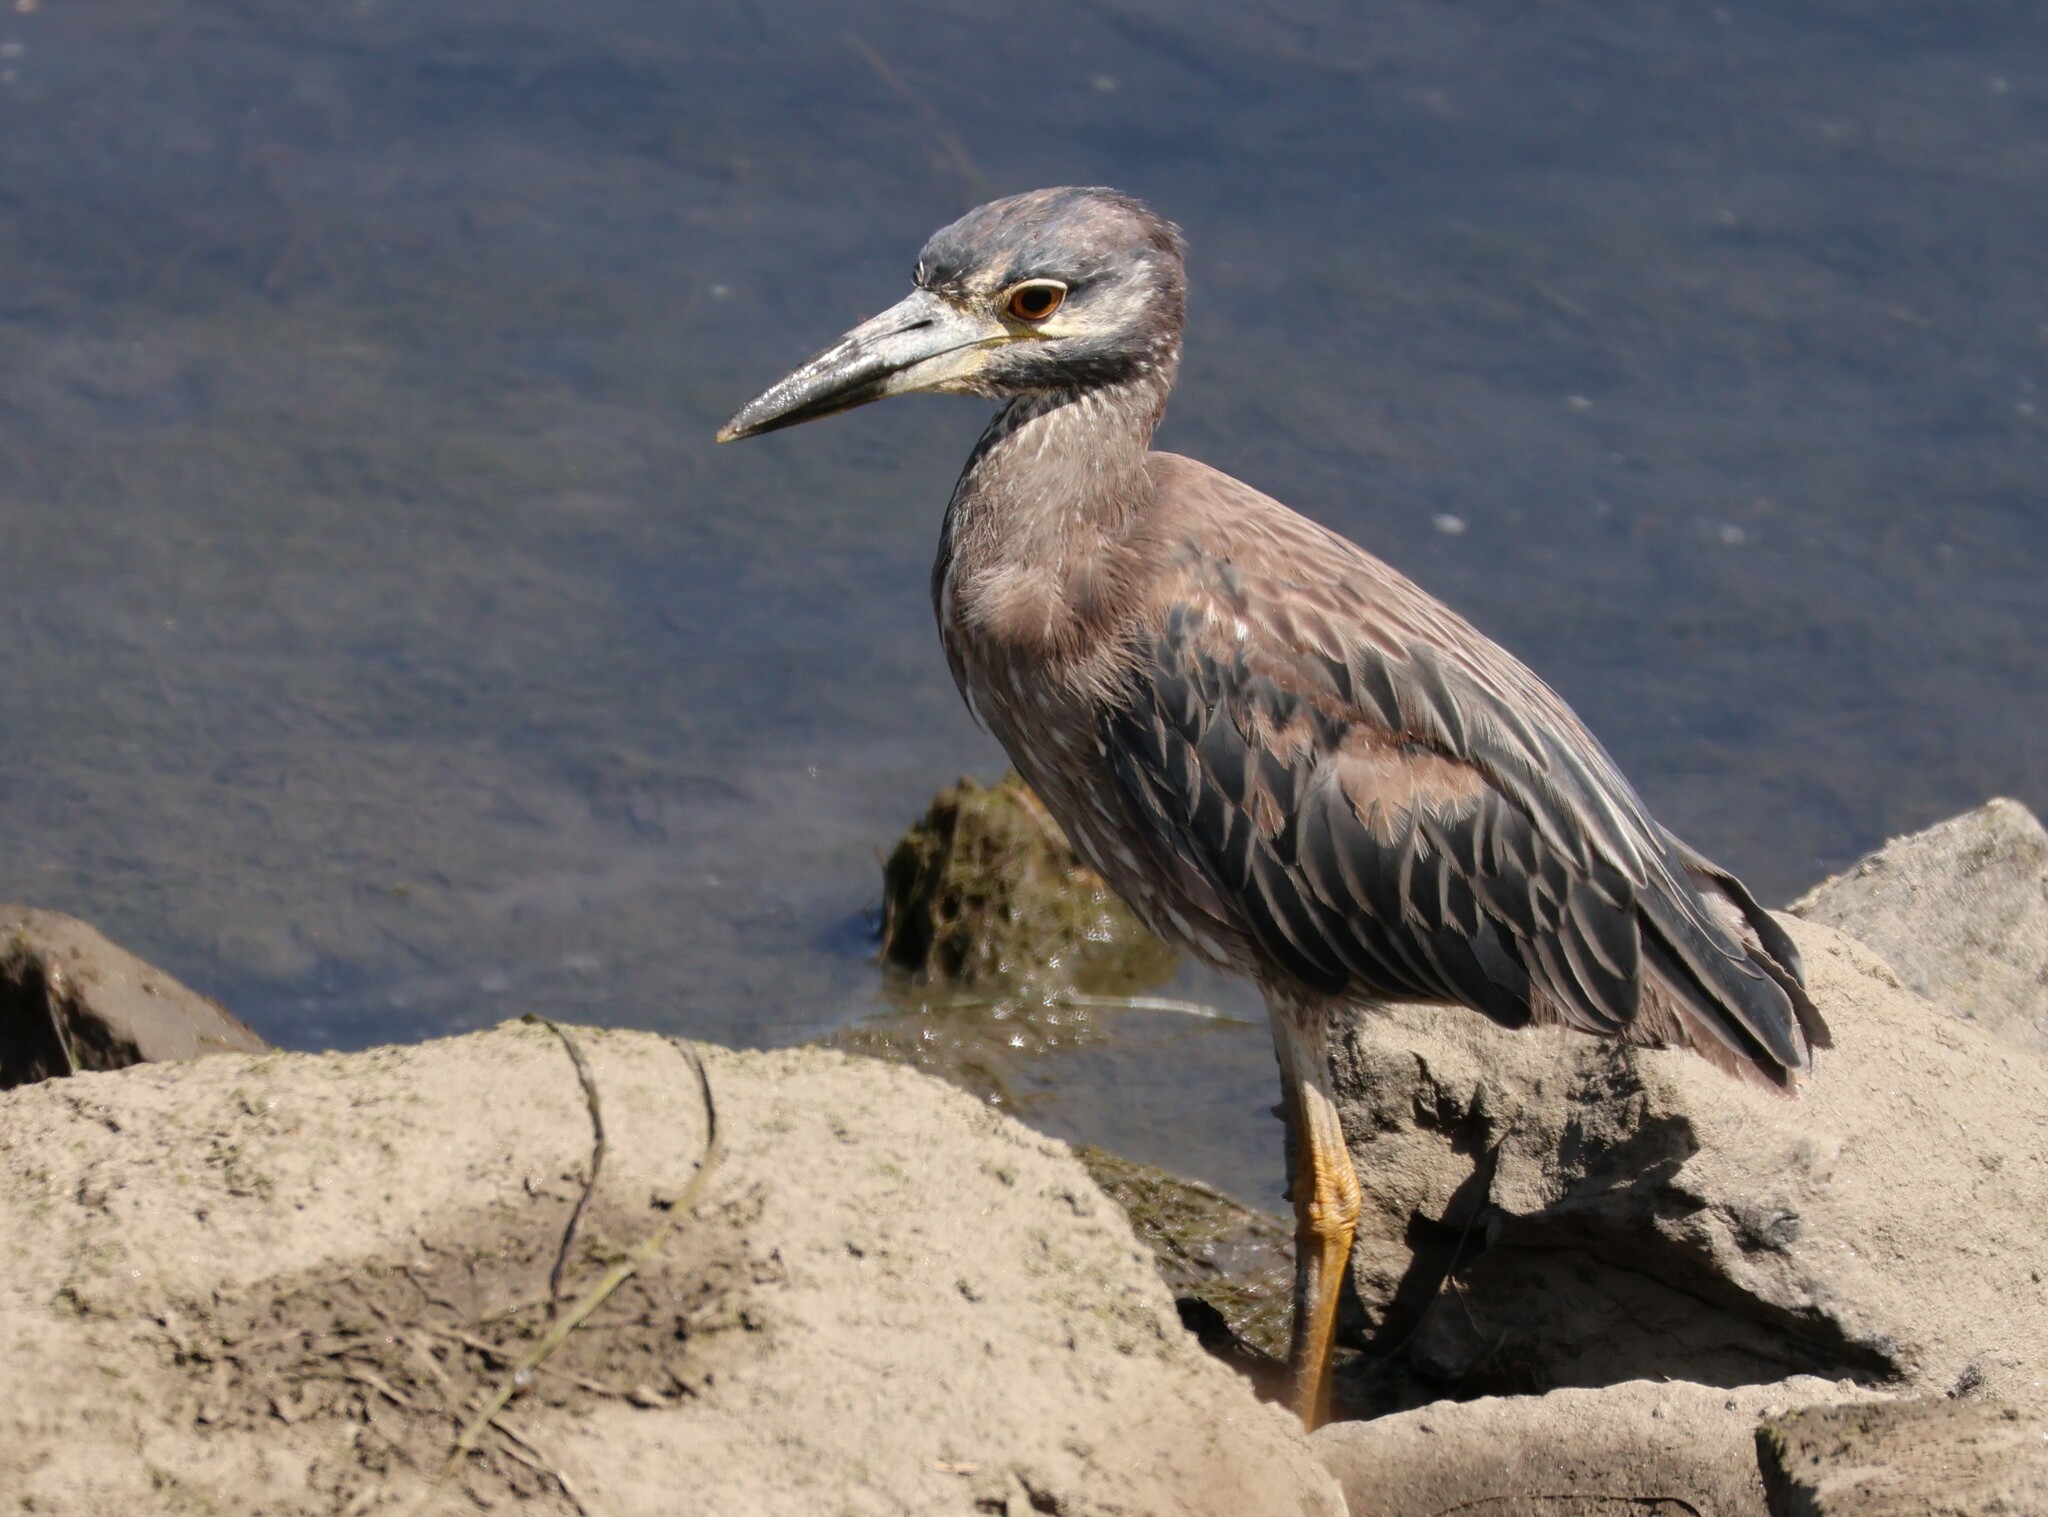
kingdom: Animalia
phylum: Chordata
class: Aves
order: Pelecaniformes
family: Ardeidae
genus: Nyctanassa
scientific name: Nyctanassa violacea
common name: Yellow-crowned night heron
